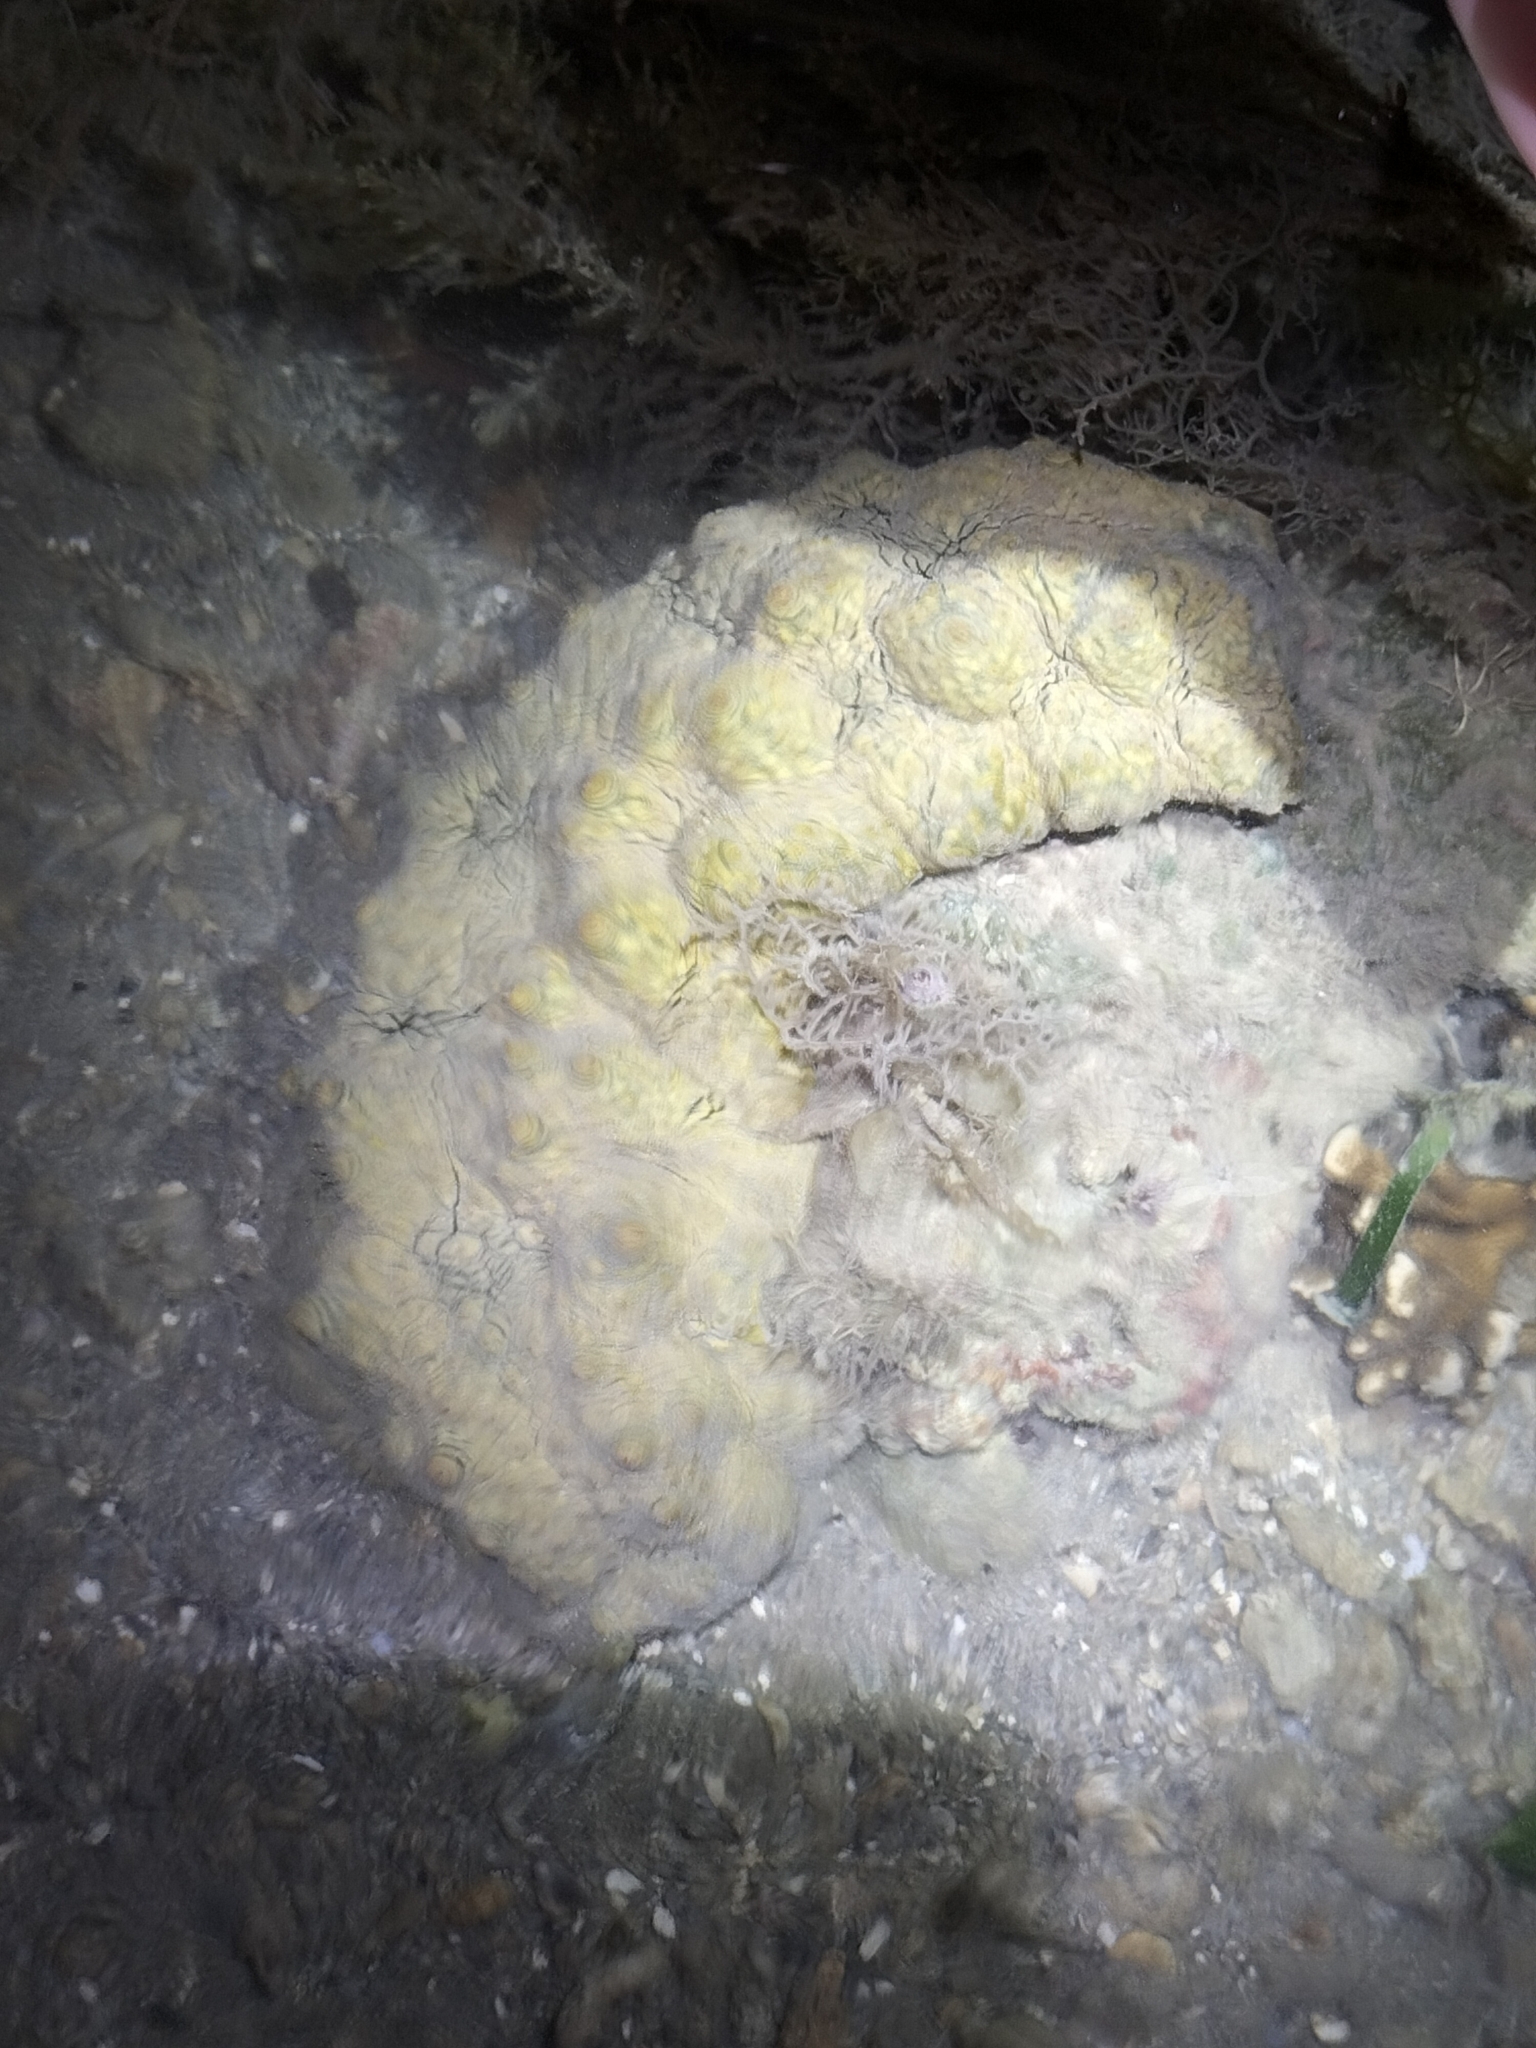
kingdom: Animalia
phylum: Echinodermata
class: Holothuroidea
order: Synallactida
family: Stichopodidae
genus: Stichopus
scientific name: Stichopus vastus
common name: Curryfish
